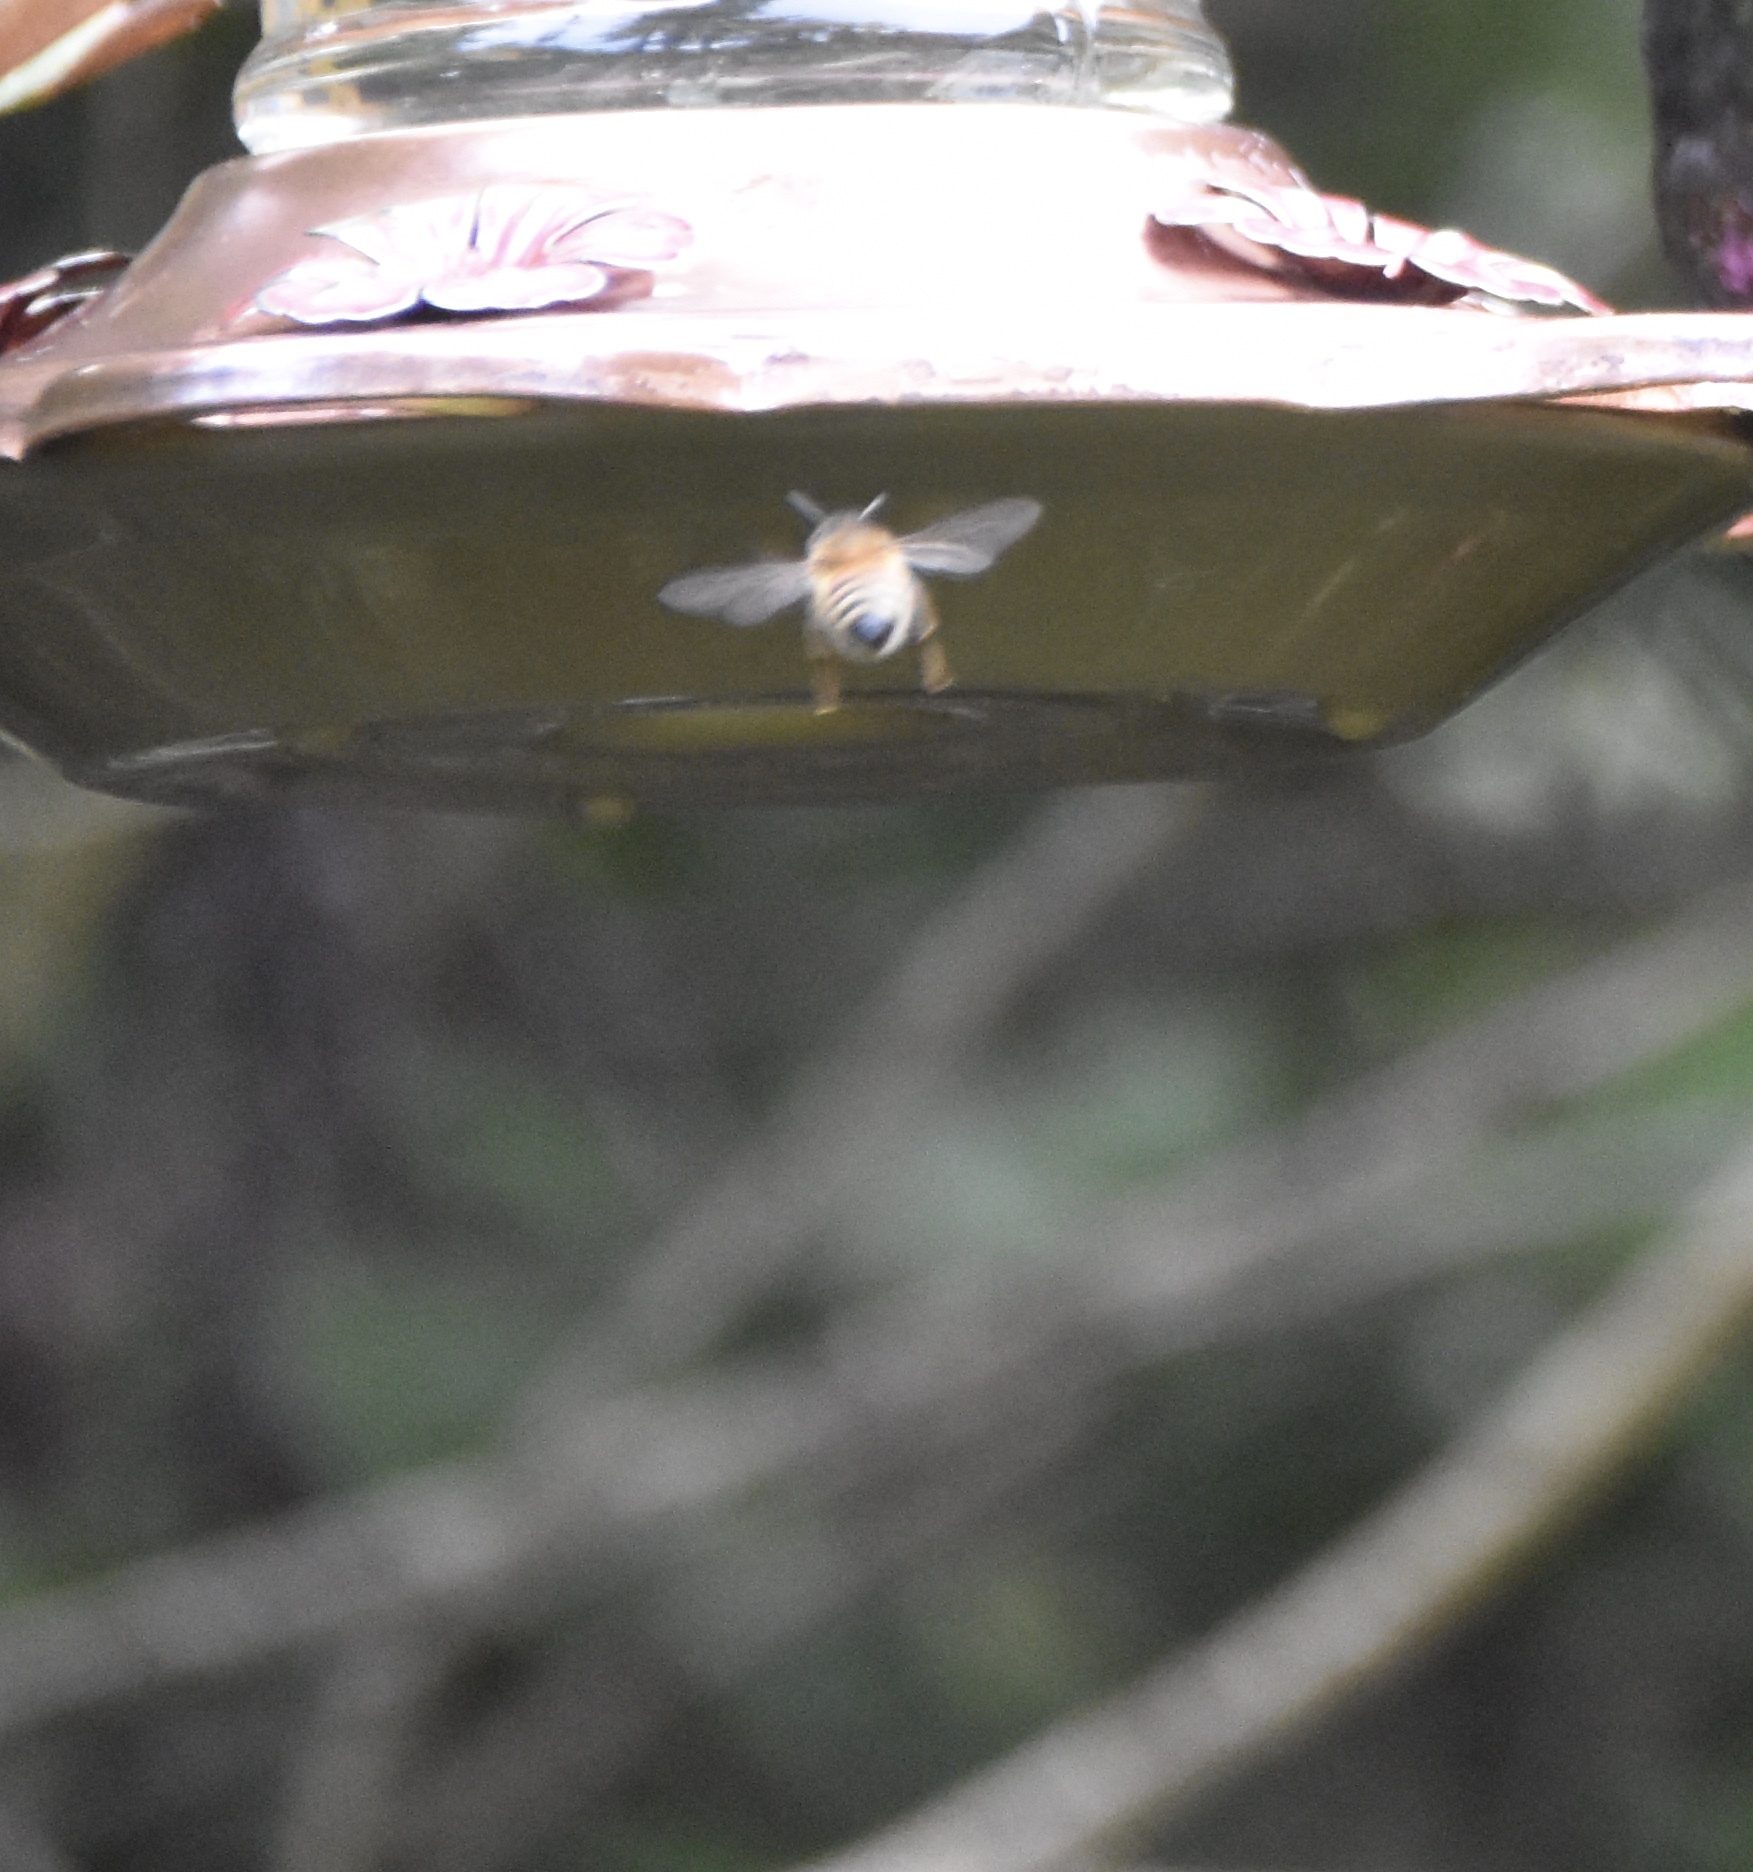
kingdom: Animalia
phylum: Arthropoda
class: Insecta
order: Hymenoptera
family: Apidae
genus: Apis
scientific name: Apis mellifera
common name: Honey bee
